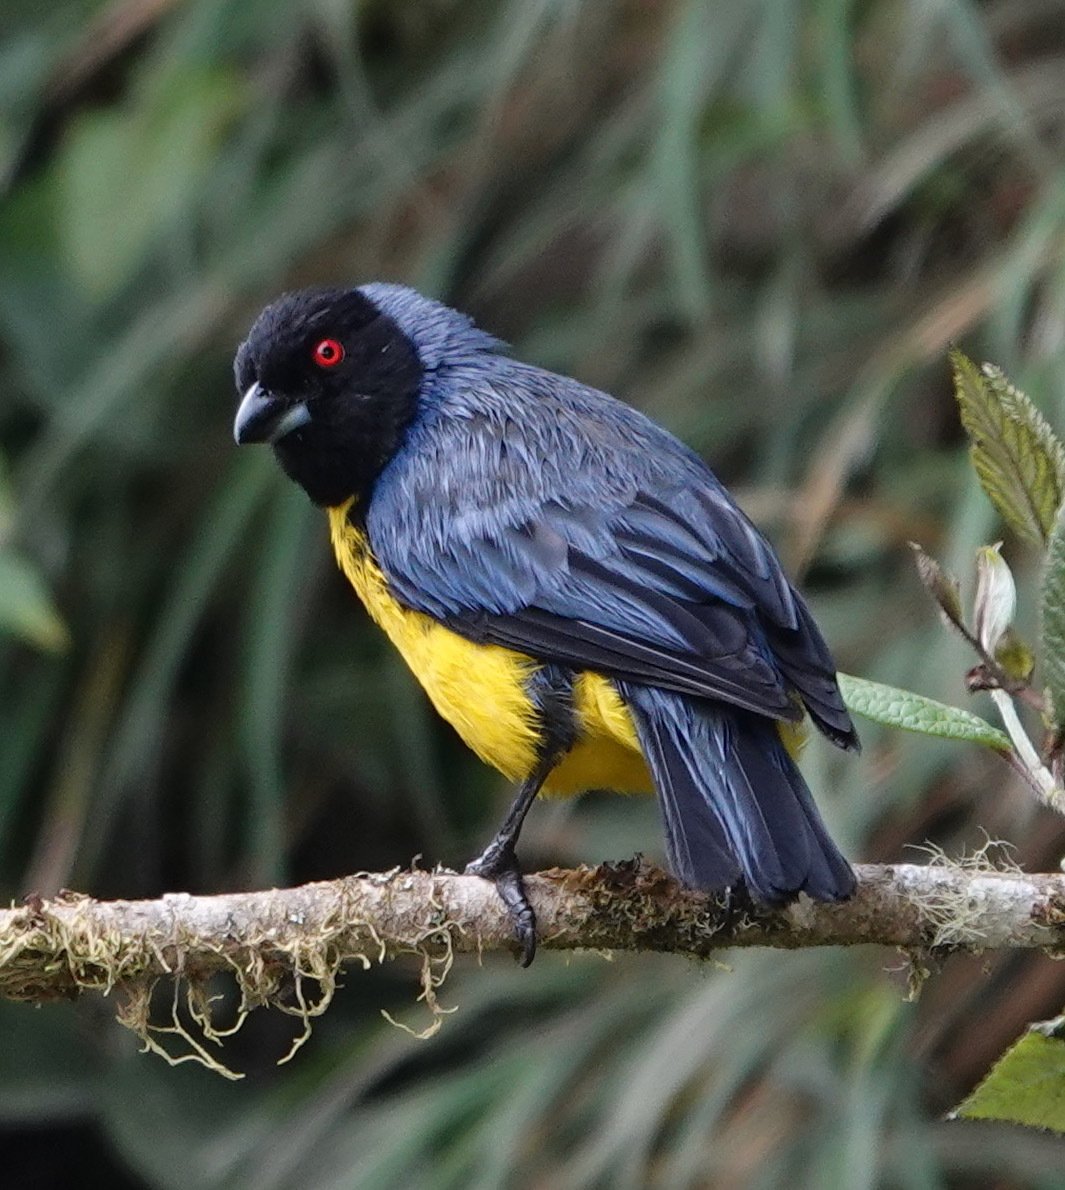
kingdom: Animalia
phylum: Chordata
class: Aves
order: Passeriformes
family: Thraupidae
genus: Buthraupis
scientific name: Buthraupis montana
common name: Hooded mountain tanager
